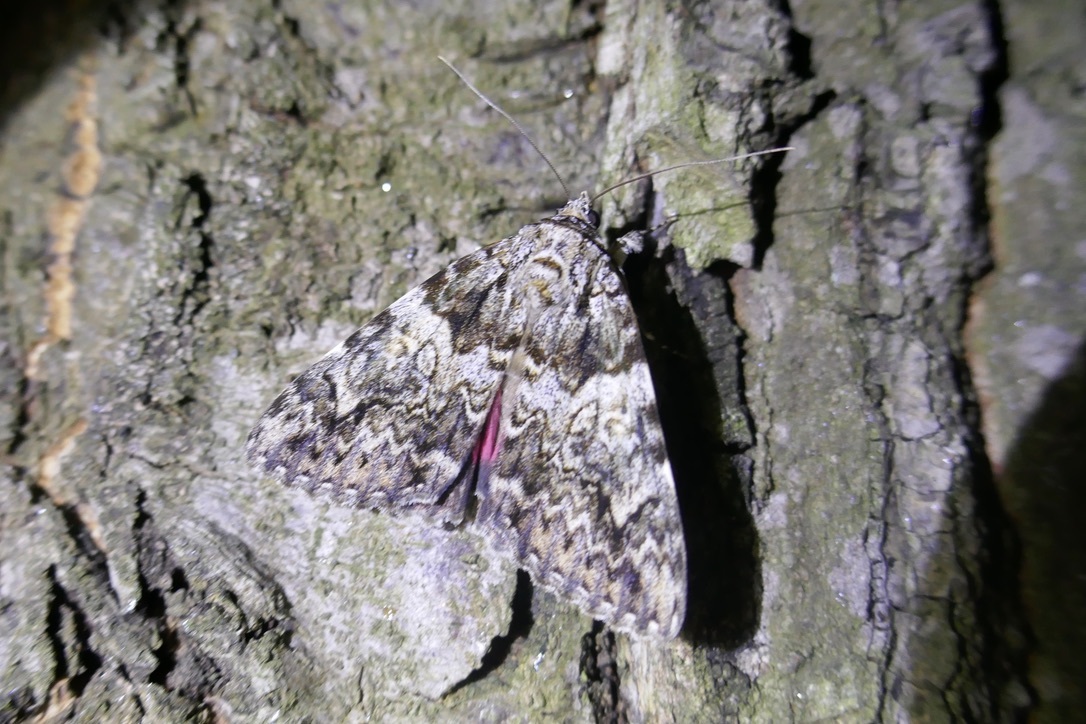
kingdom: Animalia
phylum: Arthropoda
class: Insecta
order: Lepidoptera
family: Erebidae
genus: Catocala
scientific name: Catocala promissa
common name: Light crimson underwing
